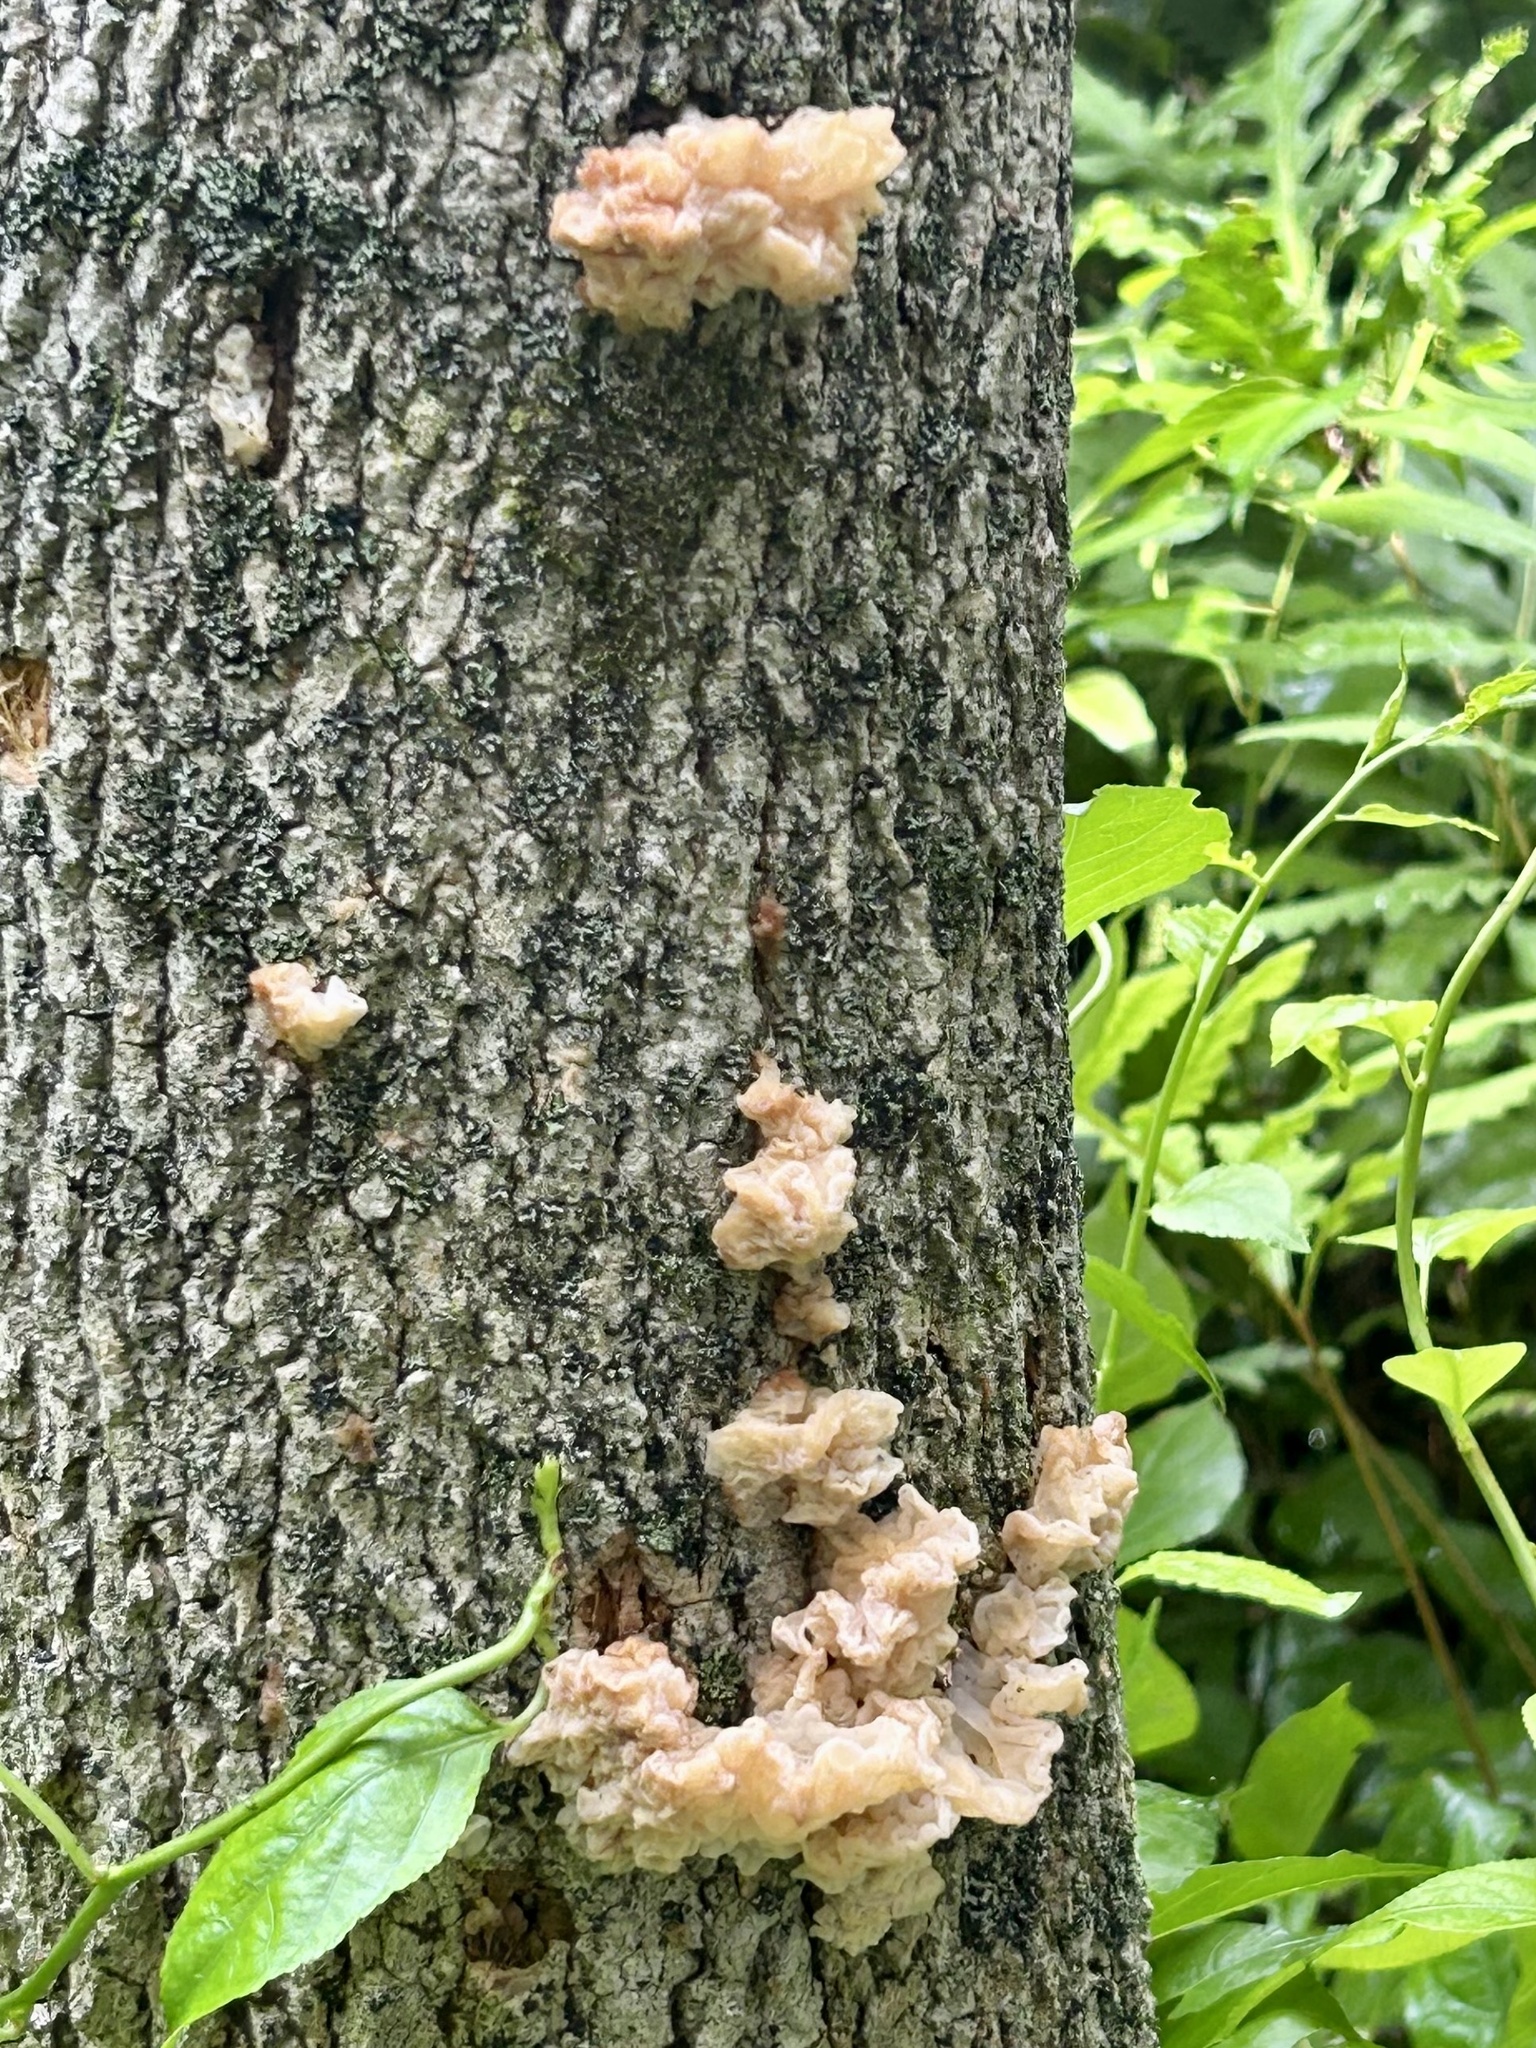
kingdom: Fungi
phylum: Basidiomycota
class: Agaricomycetes
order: Auriculariales
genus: Ductifera
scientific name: Ductifera pululahuana
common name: White jelly fungus
